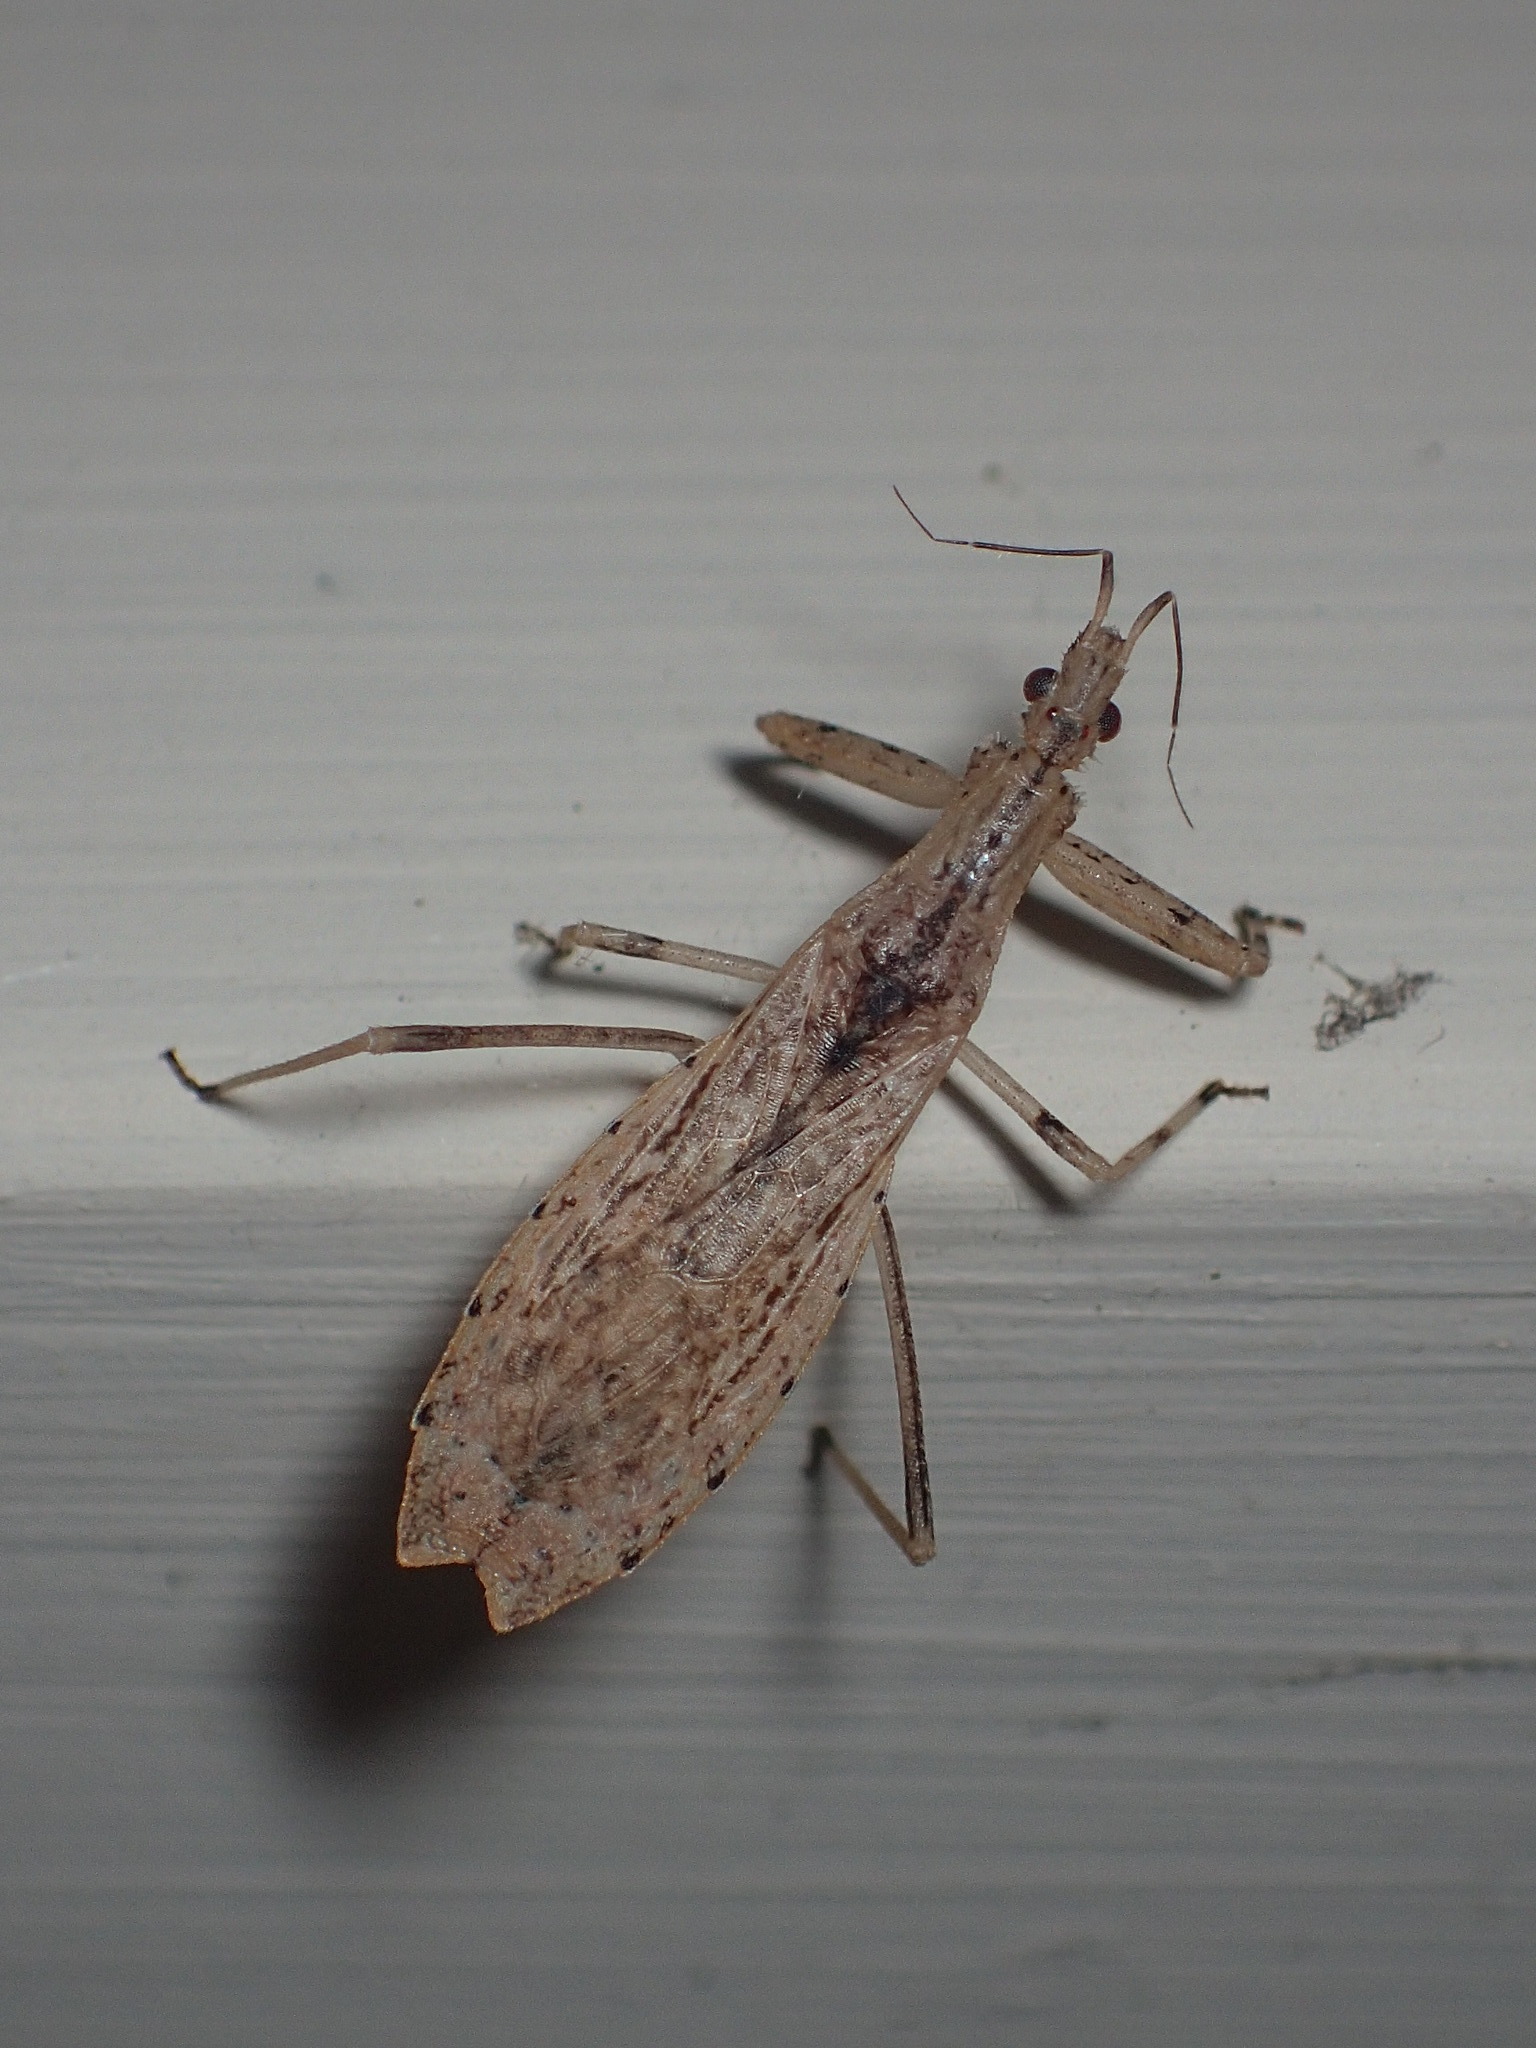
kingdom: Animalia
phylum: Arthropoda
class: Insecta
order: Hemiptera
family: Reduviidae
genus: Ctenotrachelus
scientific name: Ctenotrachelus shermani
